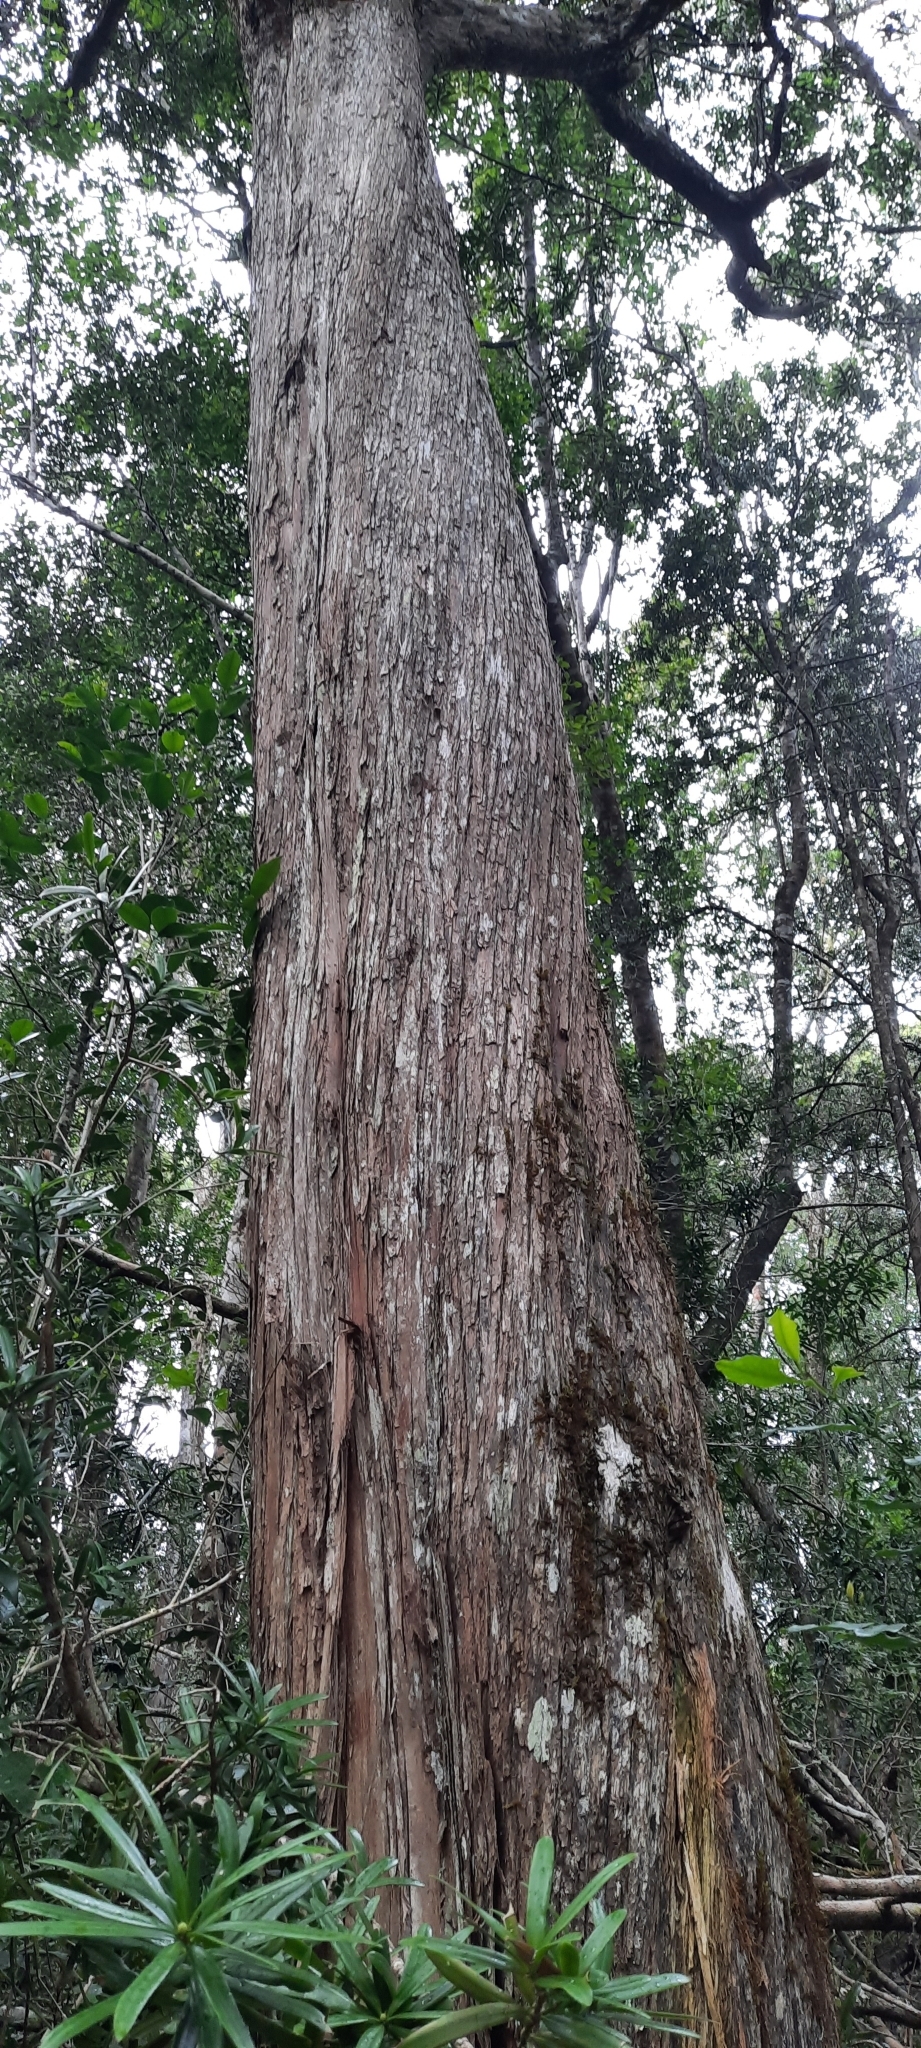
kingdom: Plantae
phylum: Tracheophyta
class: Pinopsida
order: Pinales
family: Podocarpaceae
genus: Podocarpus
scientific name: Podocarpus latifolius
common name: True yellowwood
